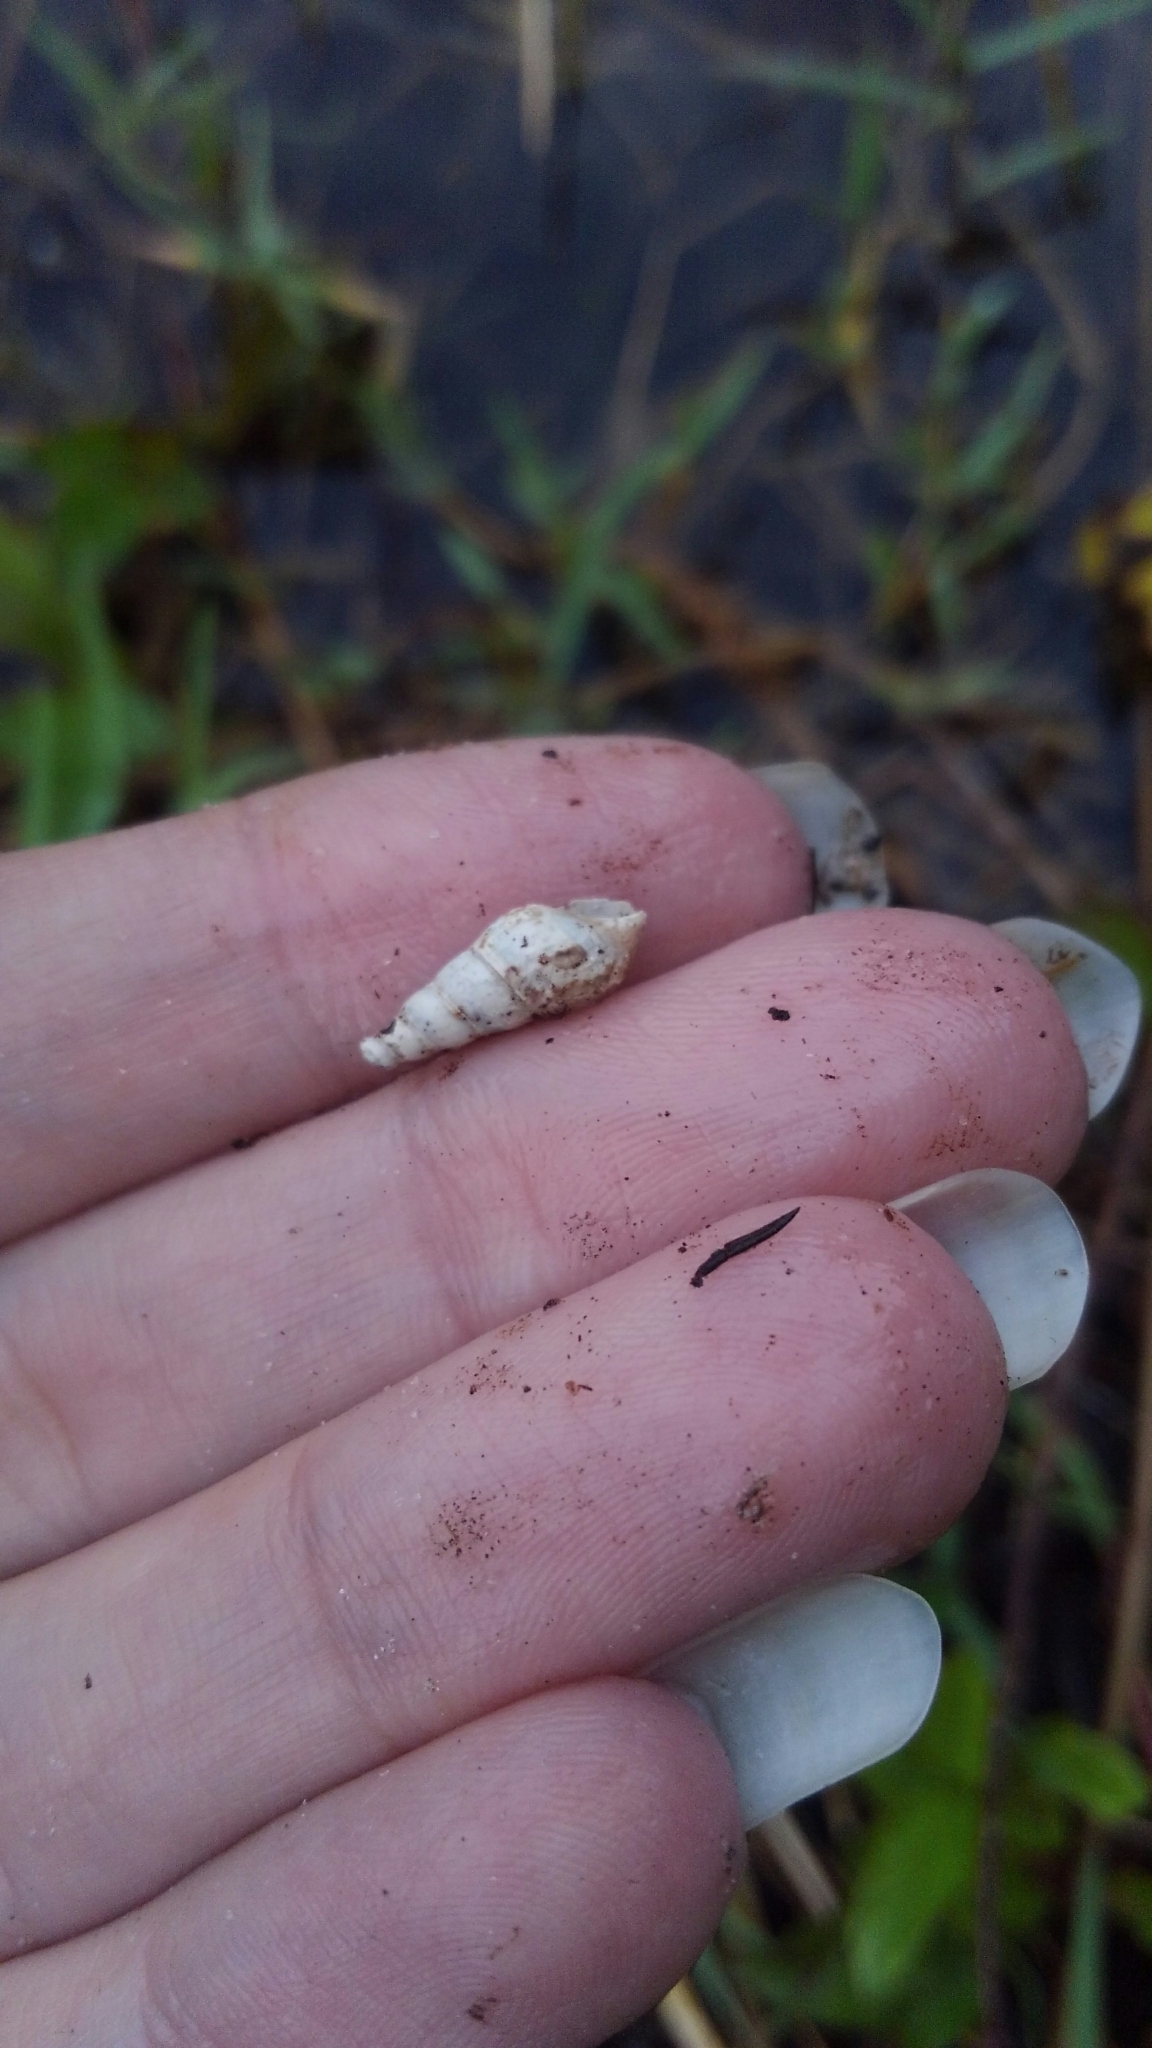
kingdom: Animalia
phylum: Mollusca
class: Gastropoda
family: Thiaridae
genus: Melanoides
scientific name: Melanoides tuberculata
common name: Red-rim melania
